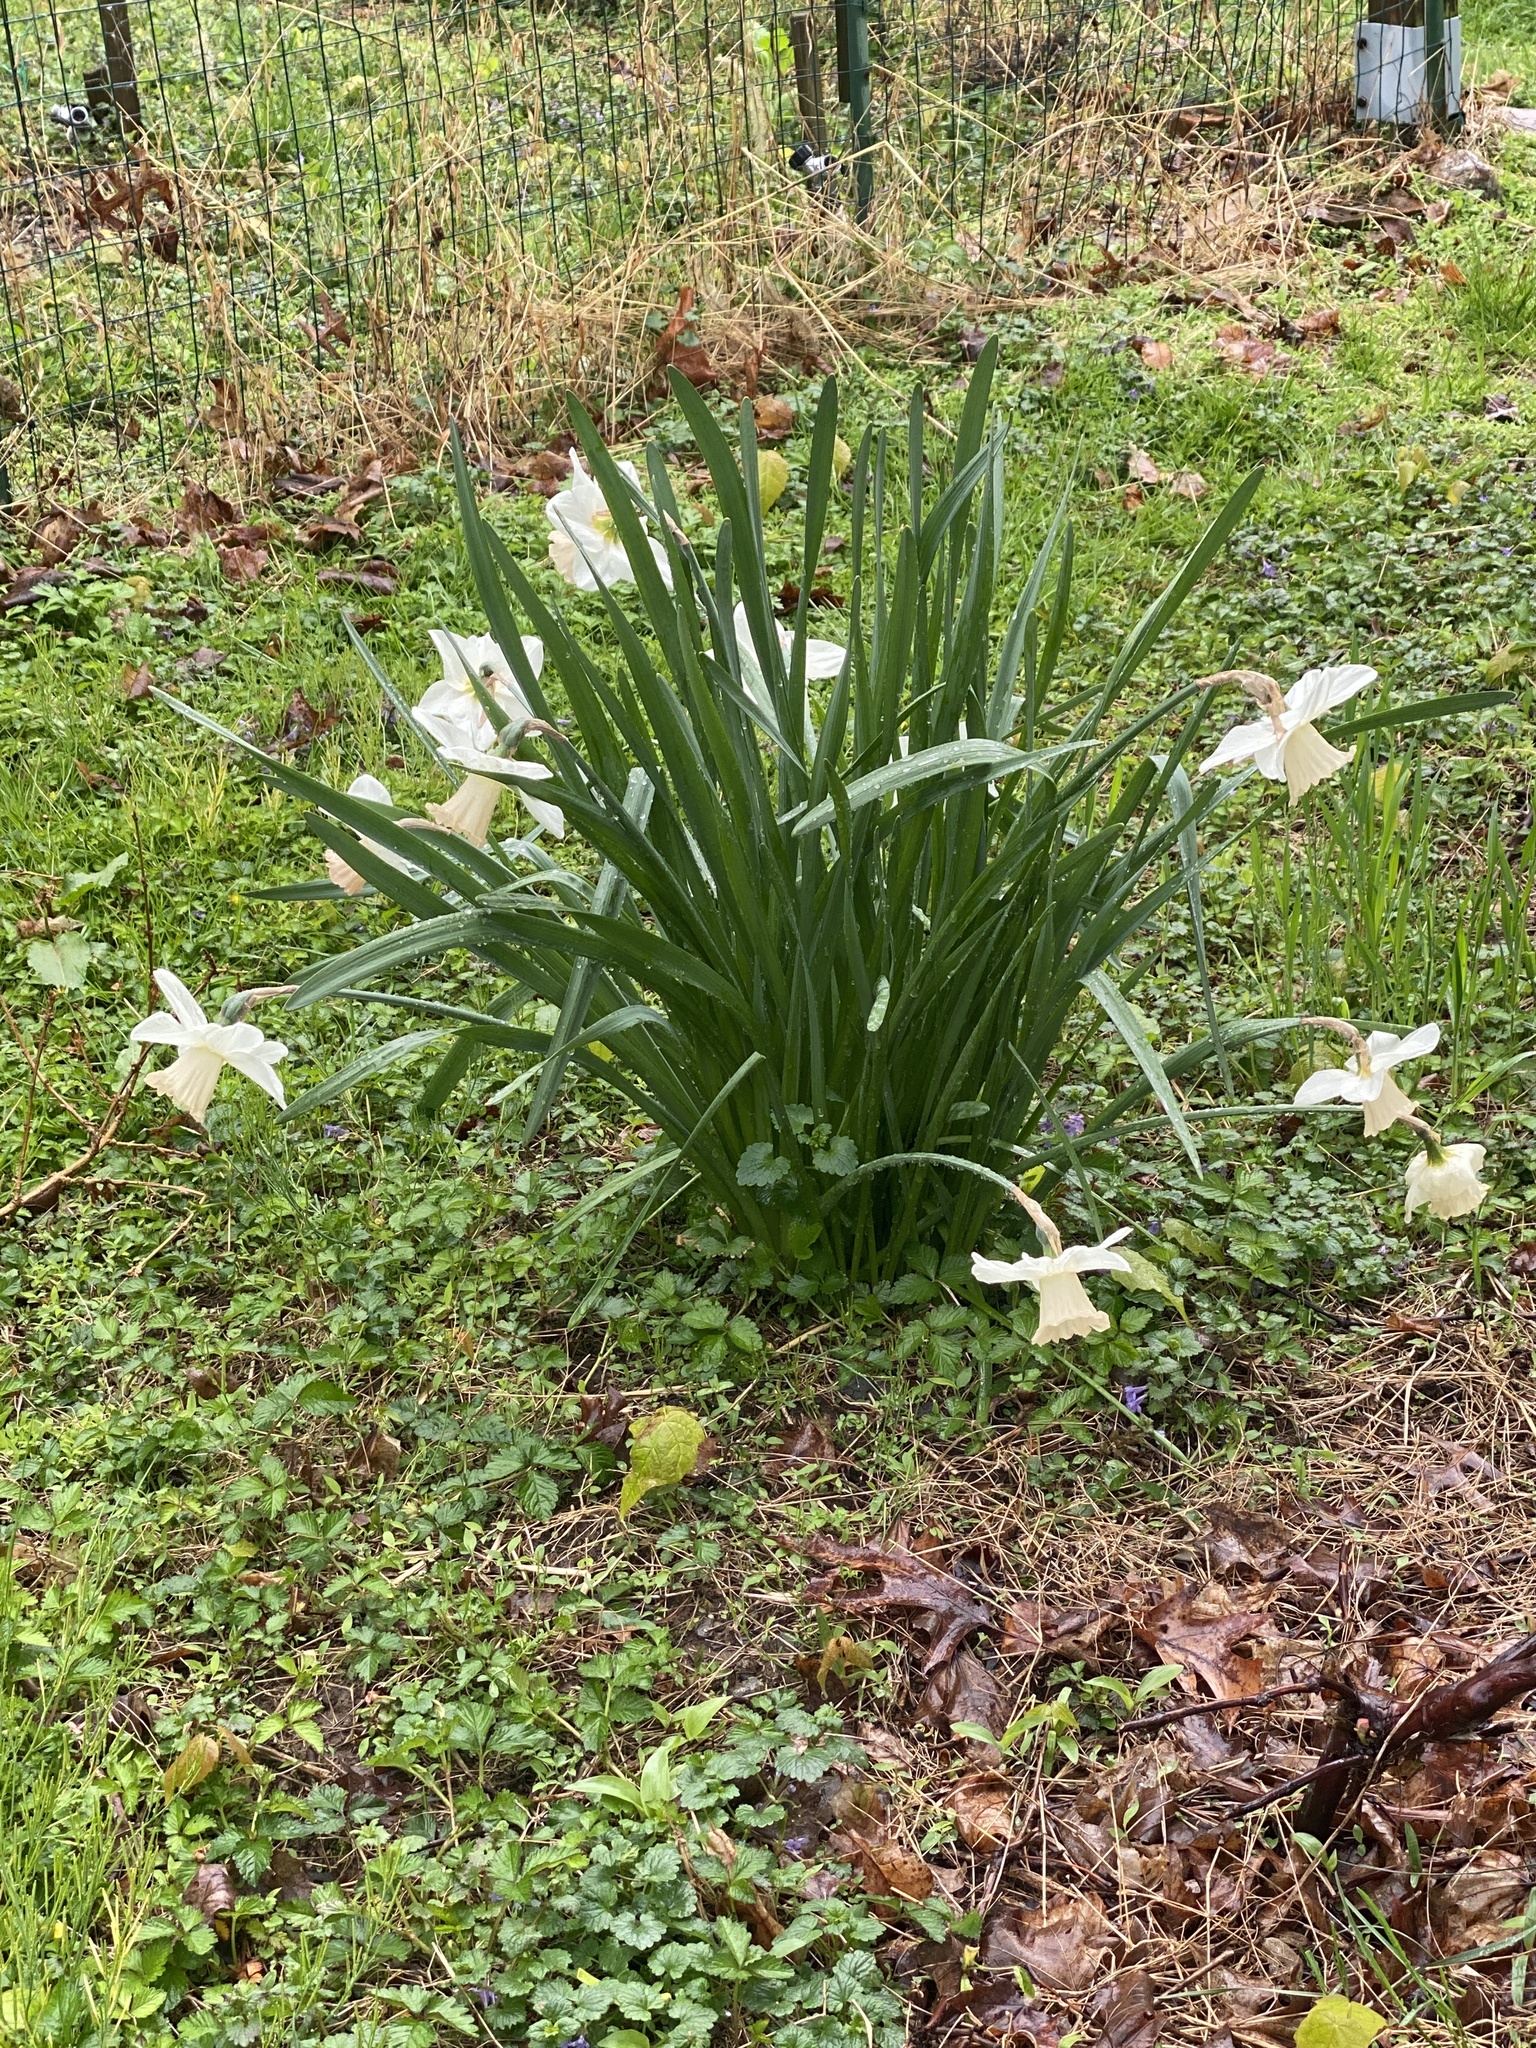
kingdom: Plantae
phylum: Tracheophyta
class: Liliopsida
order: Asparagales
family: Amaryllidaceae
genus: Narcissus
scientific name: Narcissus
